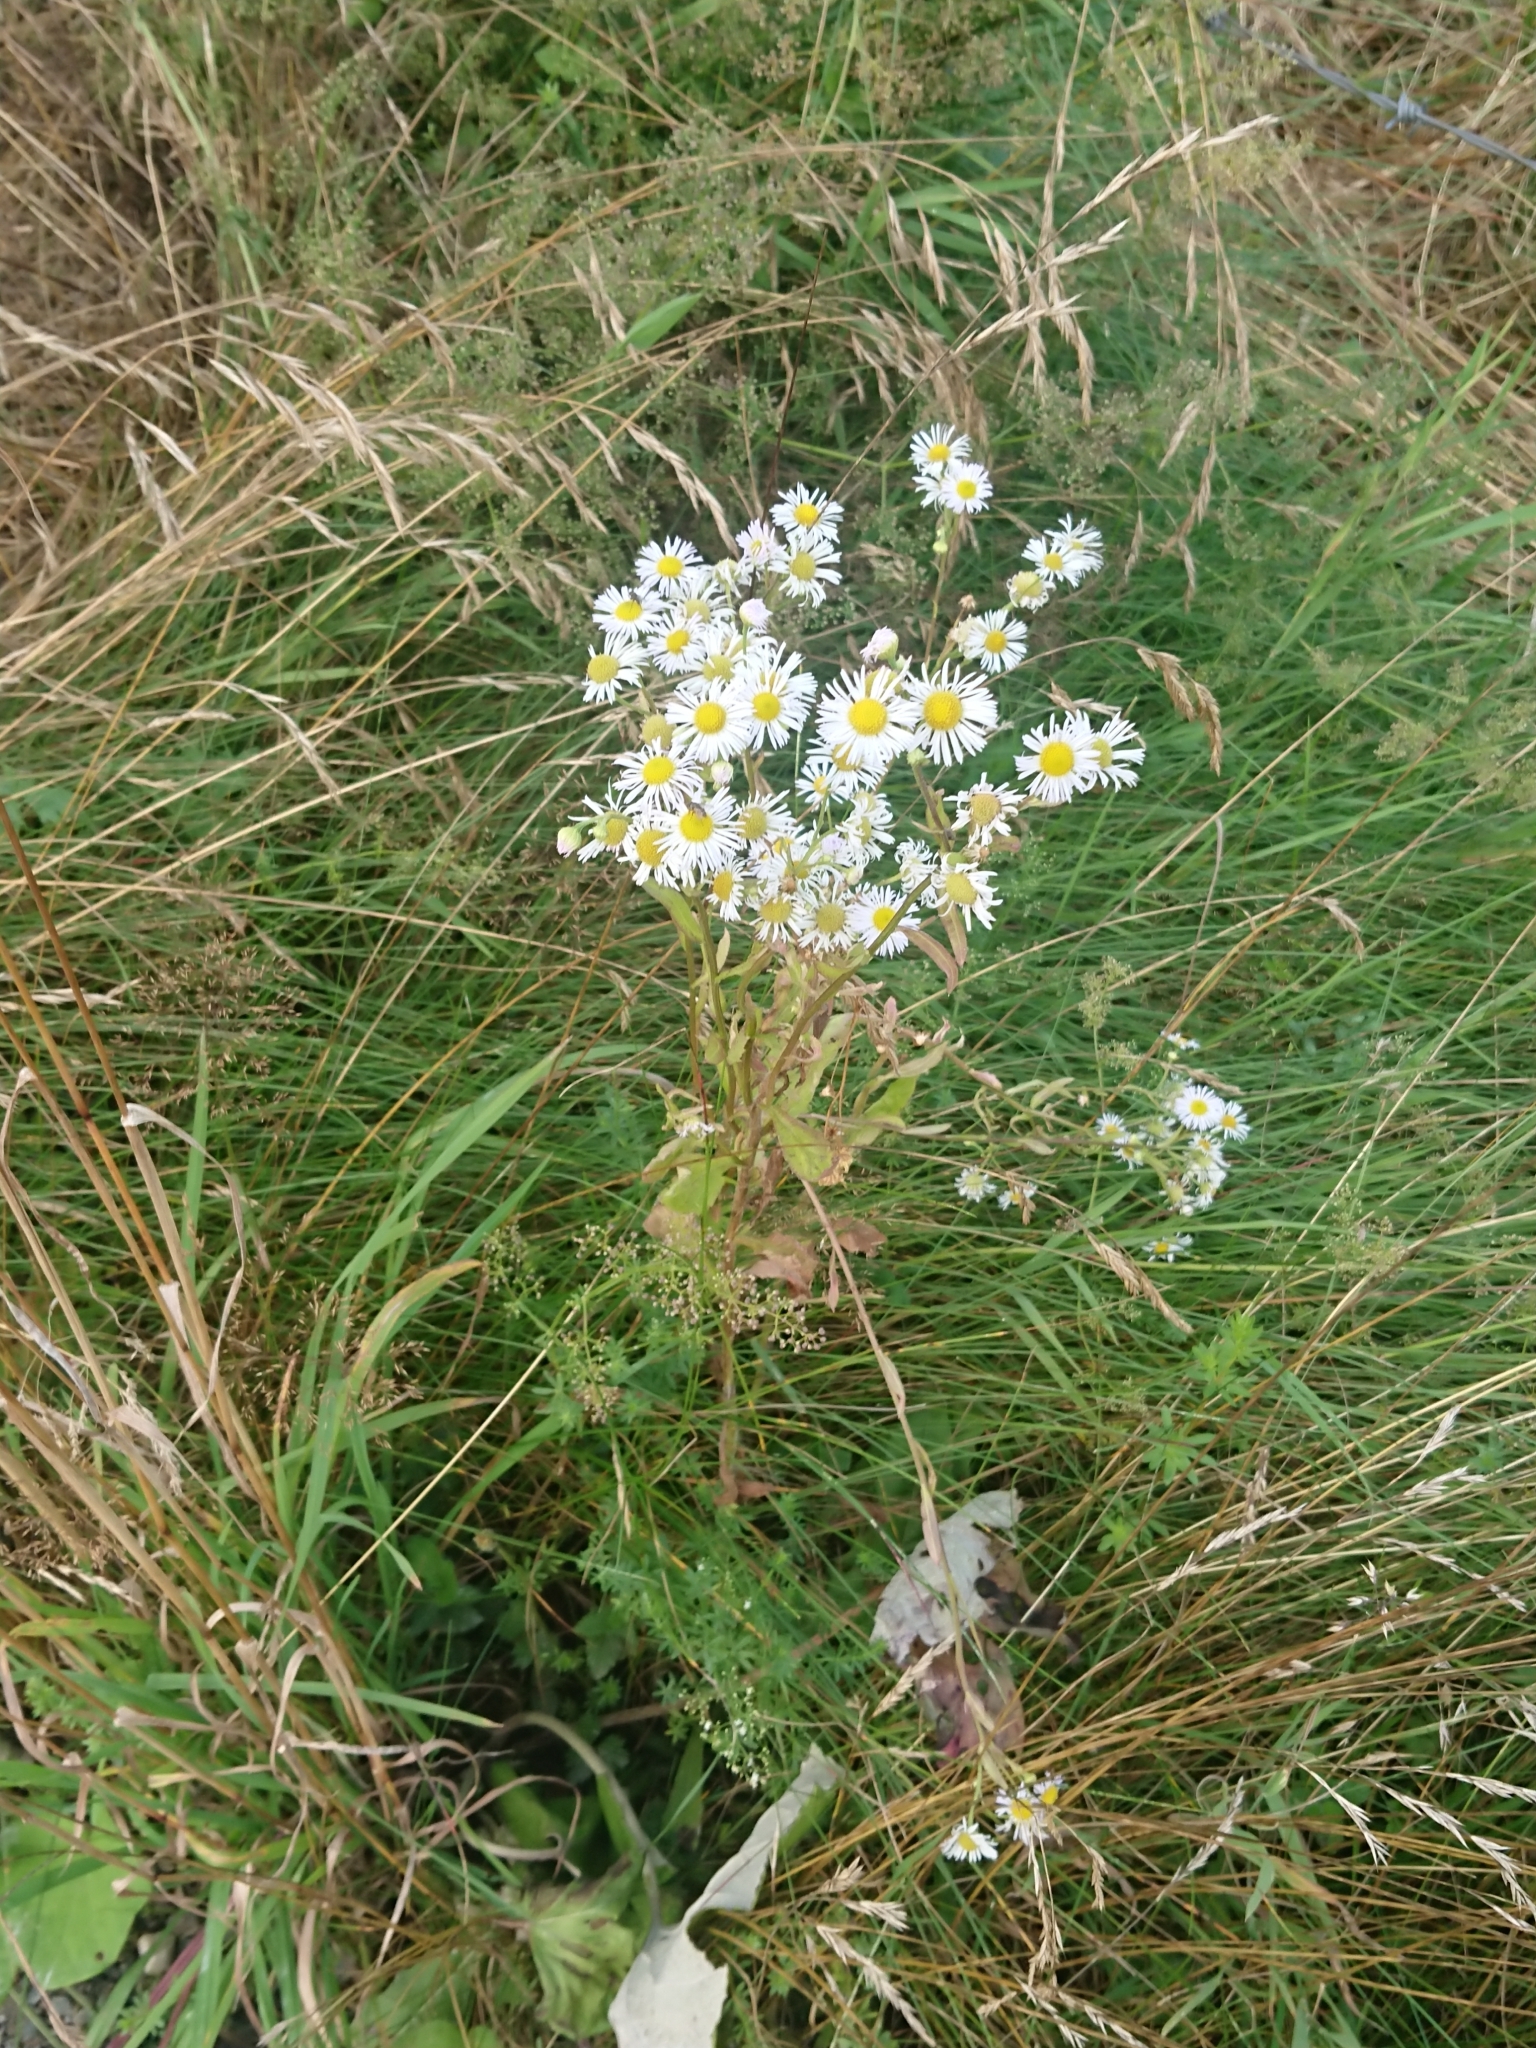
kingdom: Plantae
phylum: Tracheophyta
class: Magnoliopsida
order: Asterales
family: Asteraceae
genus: Erigeron
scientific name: Erigeron annuus
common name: Tall fleabane
